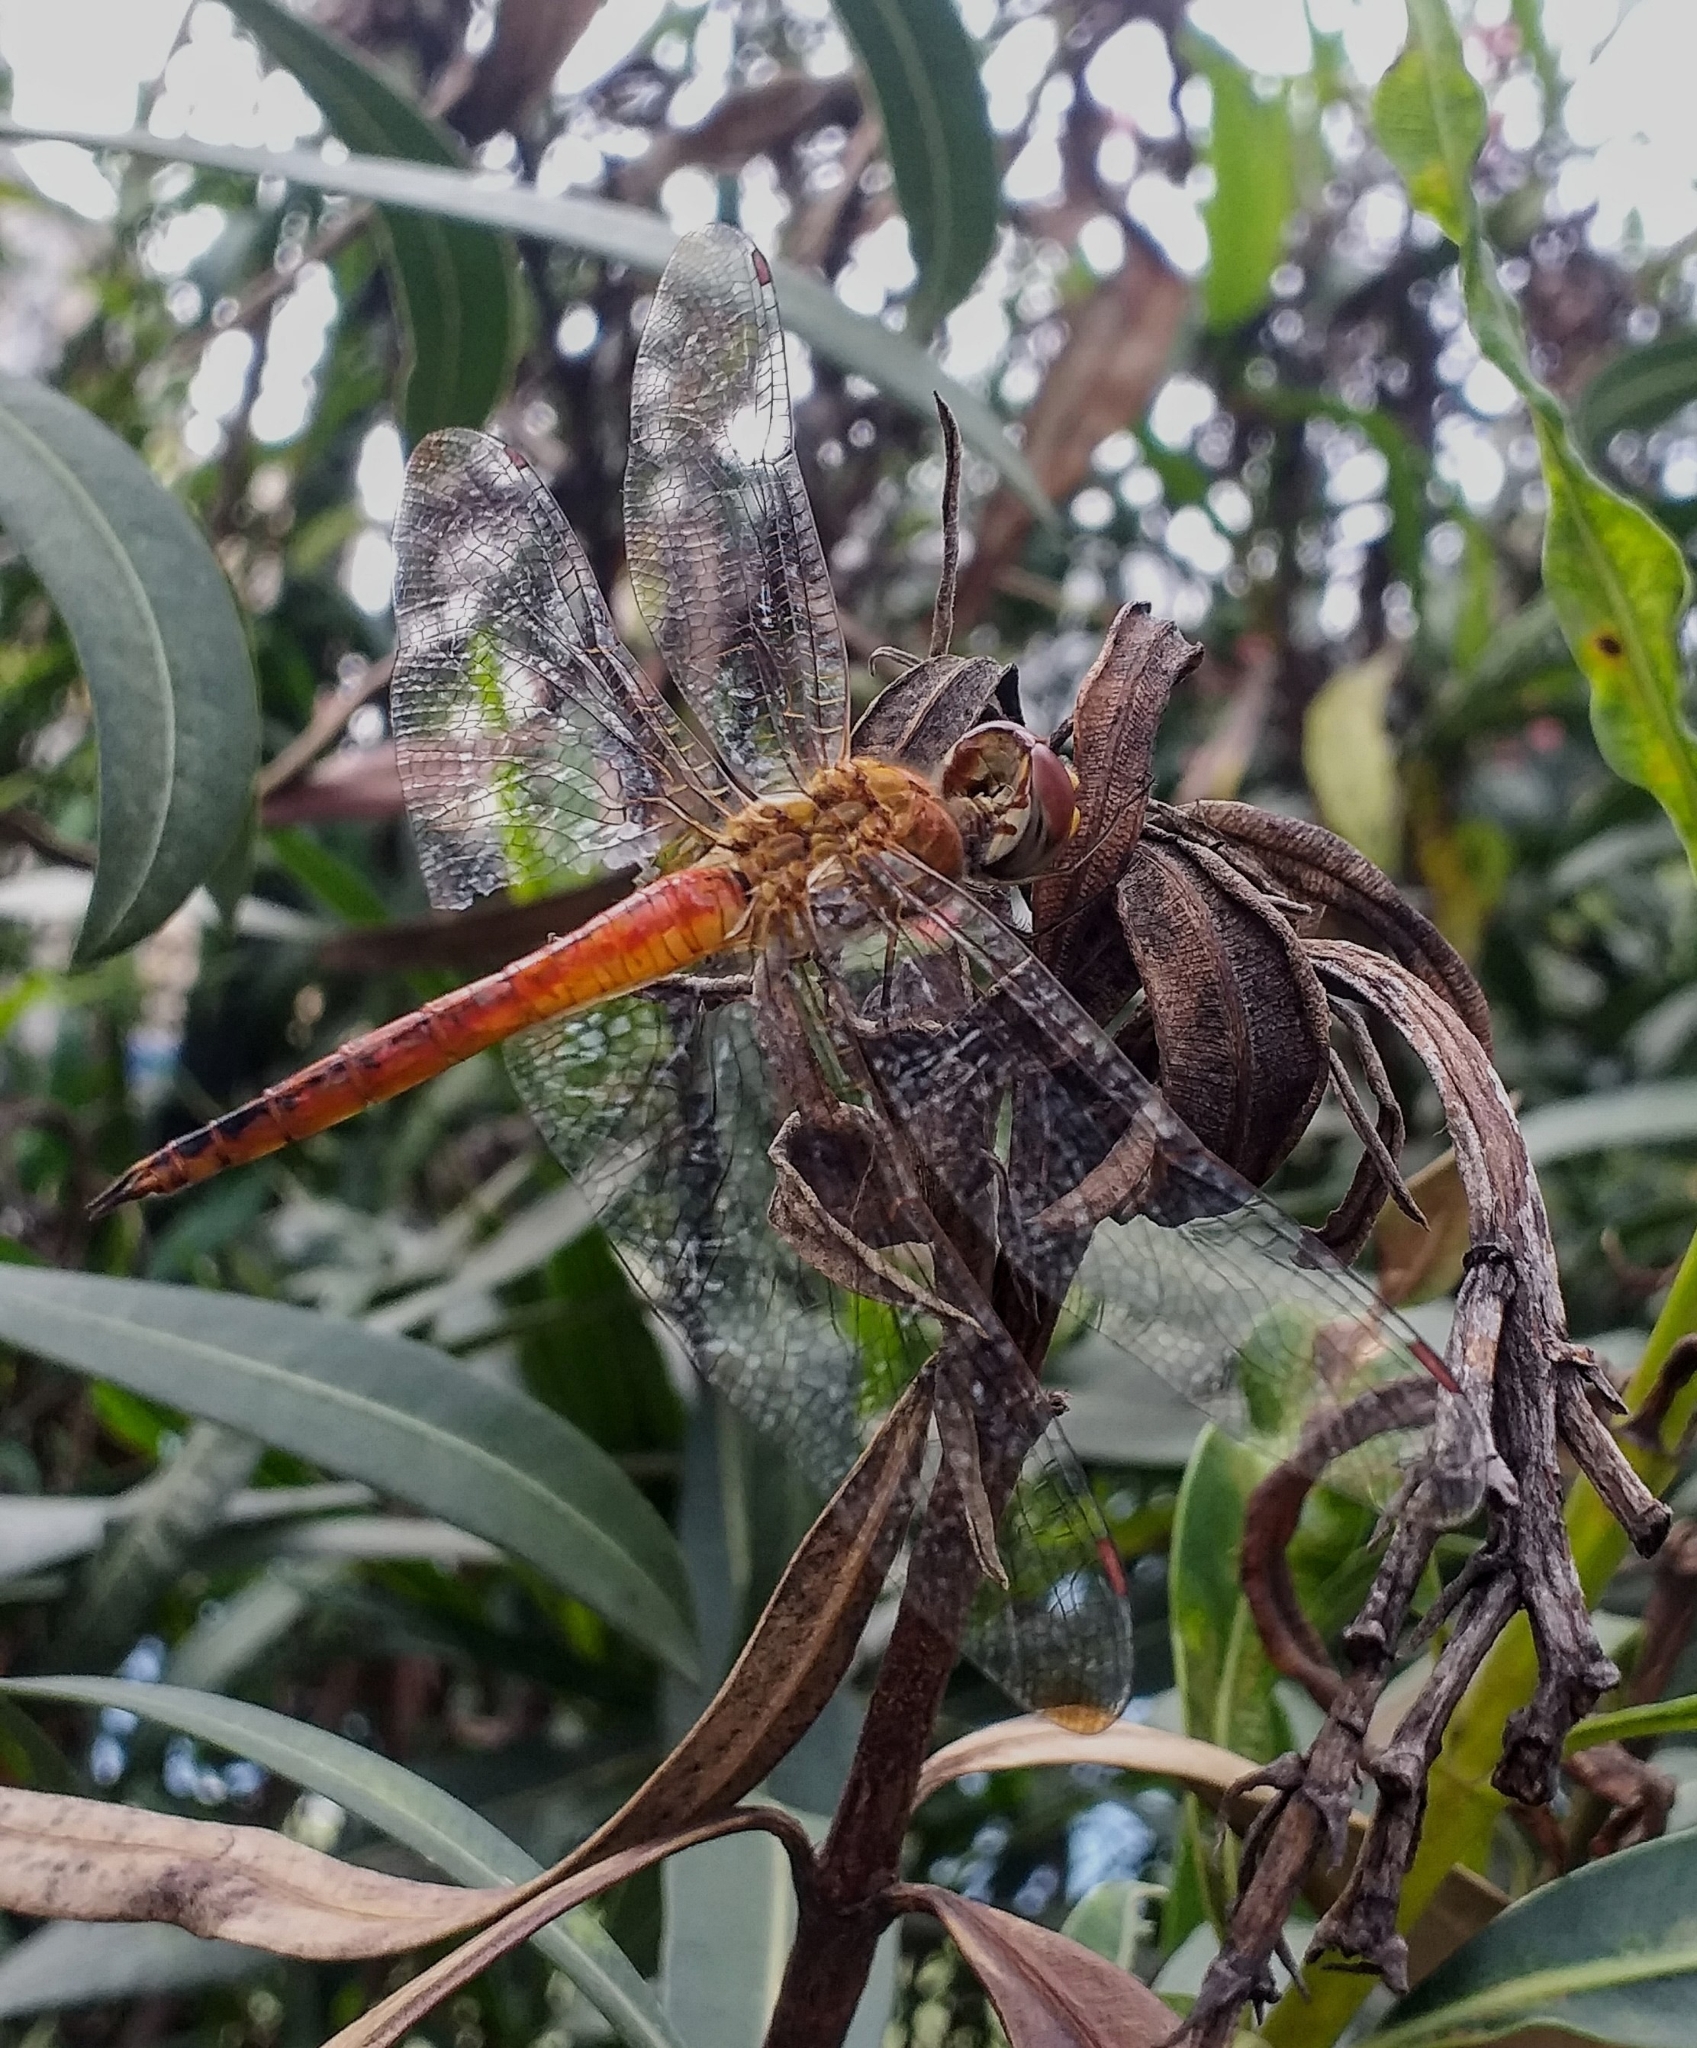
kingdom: Animalia
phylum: Arthropoda
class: Insecta
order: Odonata
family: Libellulidae
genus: Pantala
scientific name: Pantala flavescens
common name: Wandering glider
